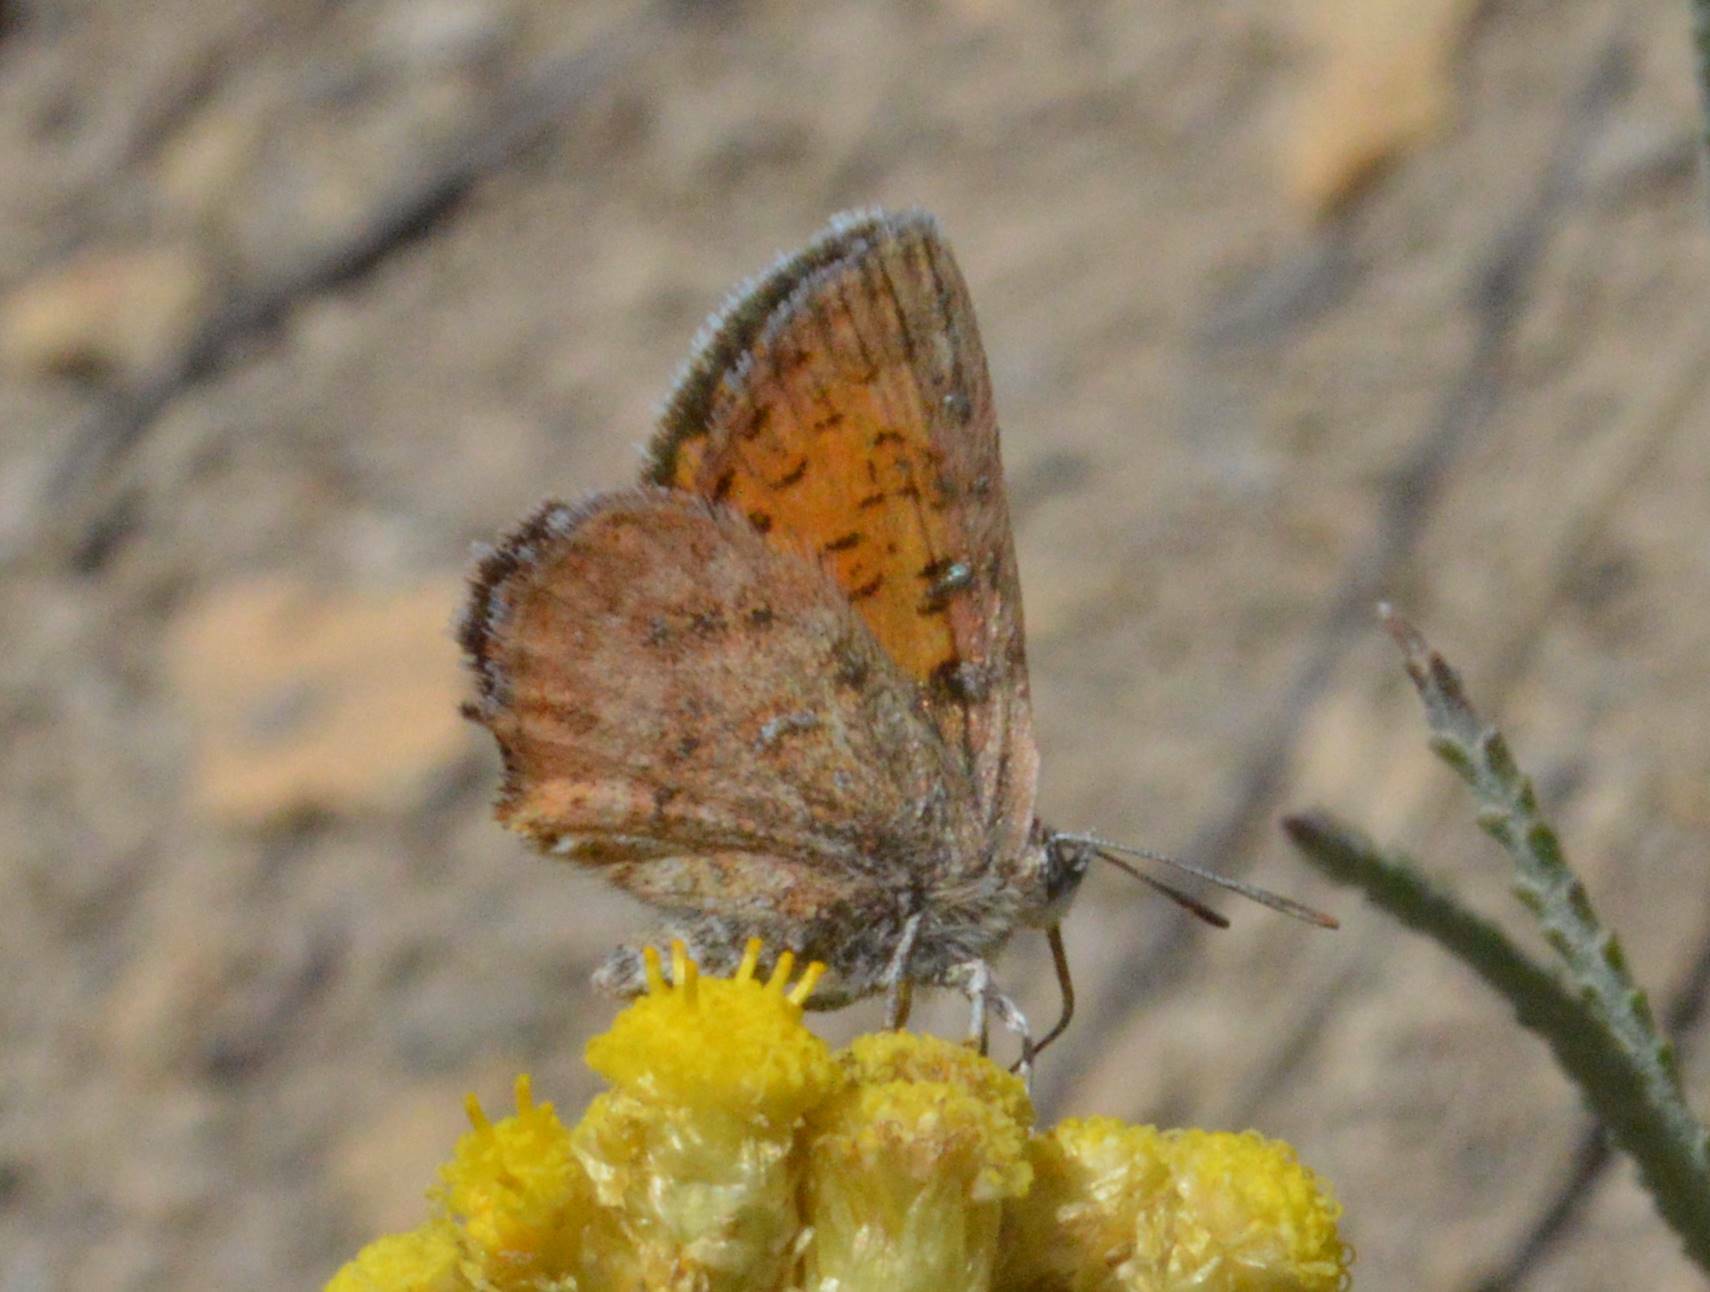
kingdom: Animalia
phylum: Arthropoda
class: Insecta
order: Lepidoptera
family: Lycaenidae
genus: Cigaritis
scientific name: Cigaritis syphax
